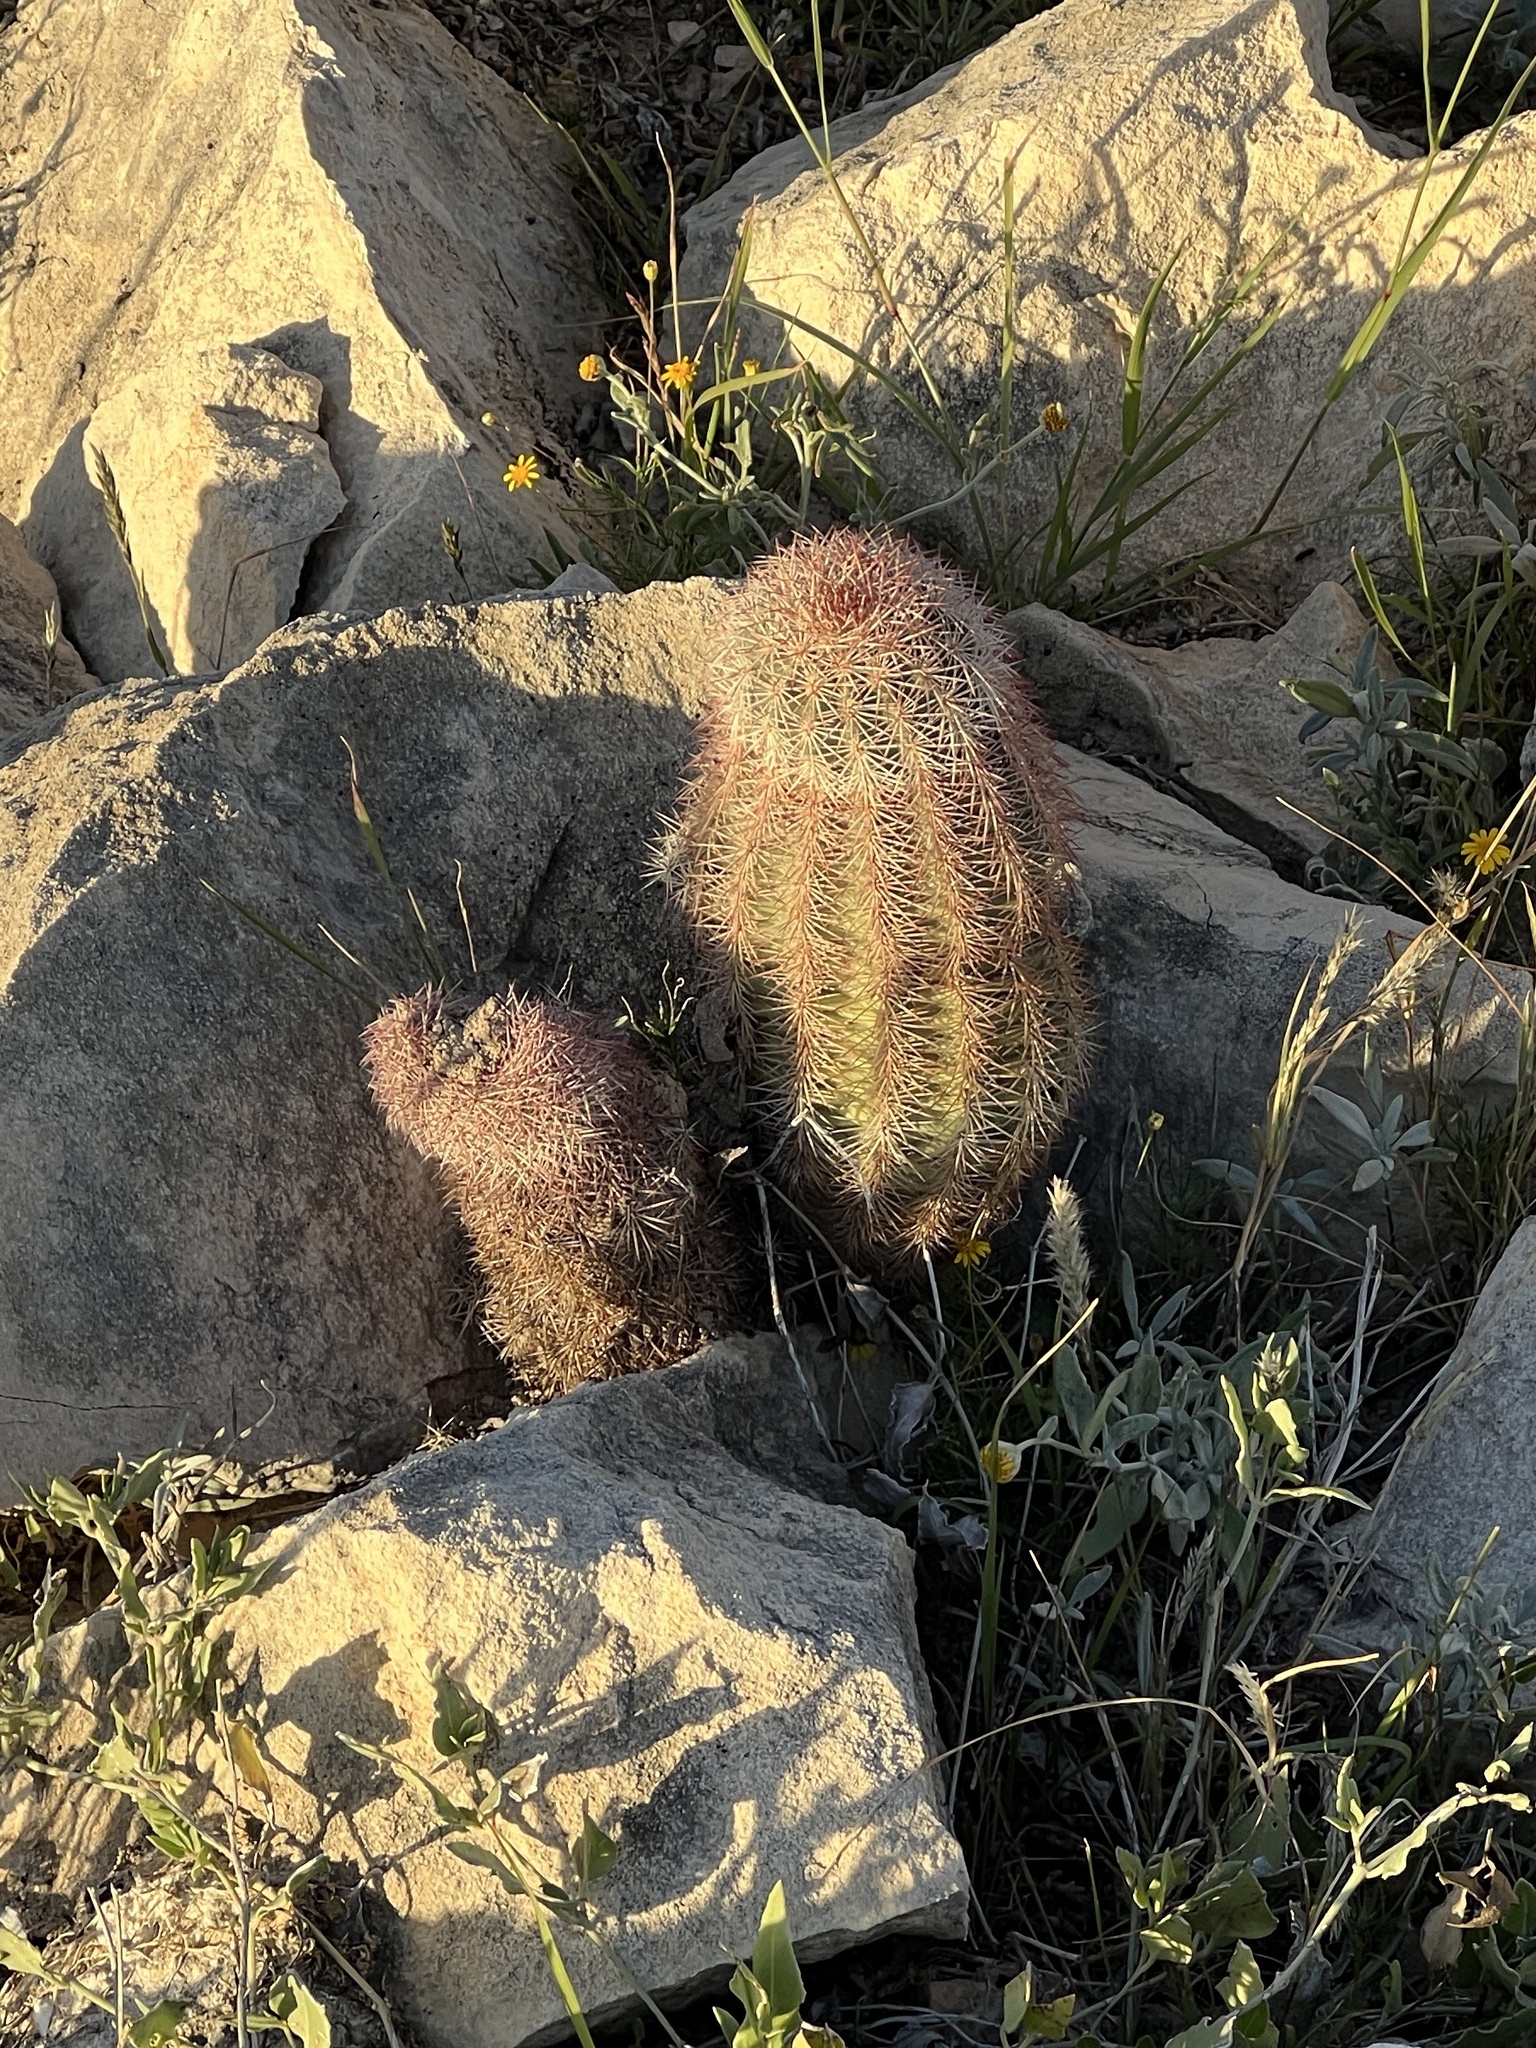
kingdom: Plantae
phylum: Tracheophyta
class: Magnoliopsida
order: Caryophyllales
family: Cactaceae
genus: Echinocereus
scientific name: Echinocereus dasyacanthus
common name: Spiny hedgehog cactus
